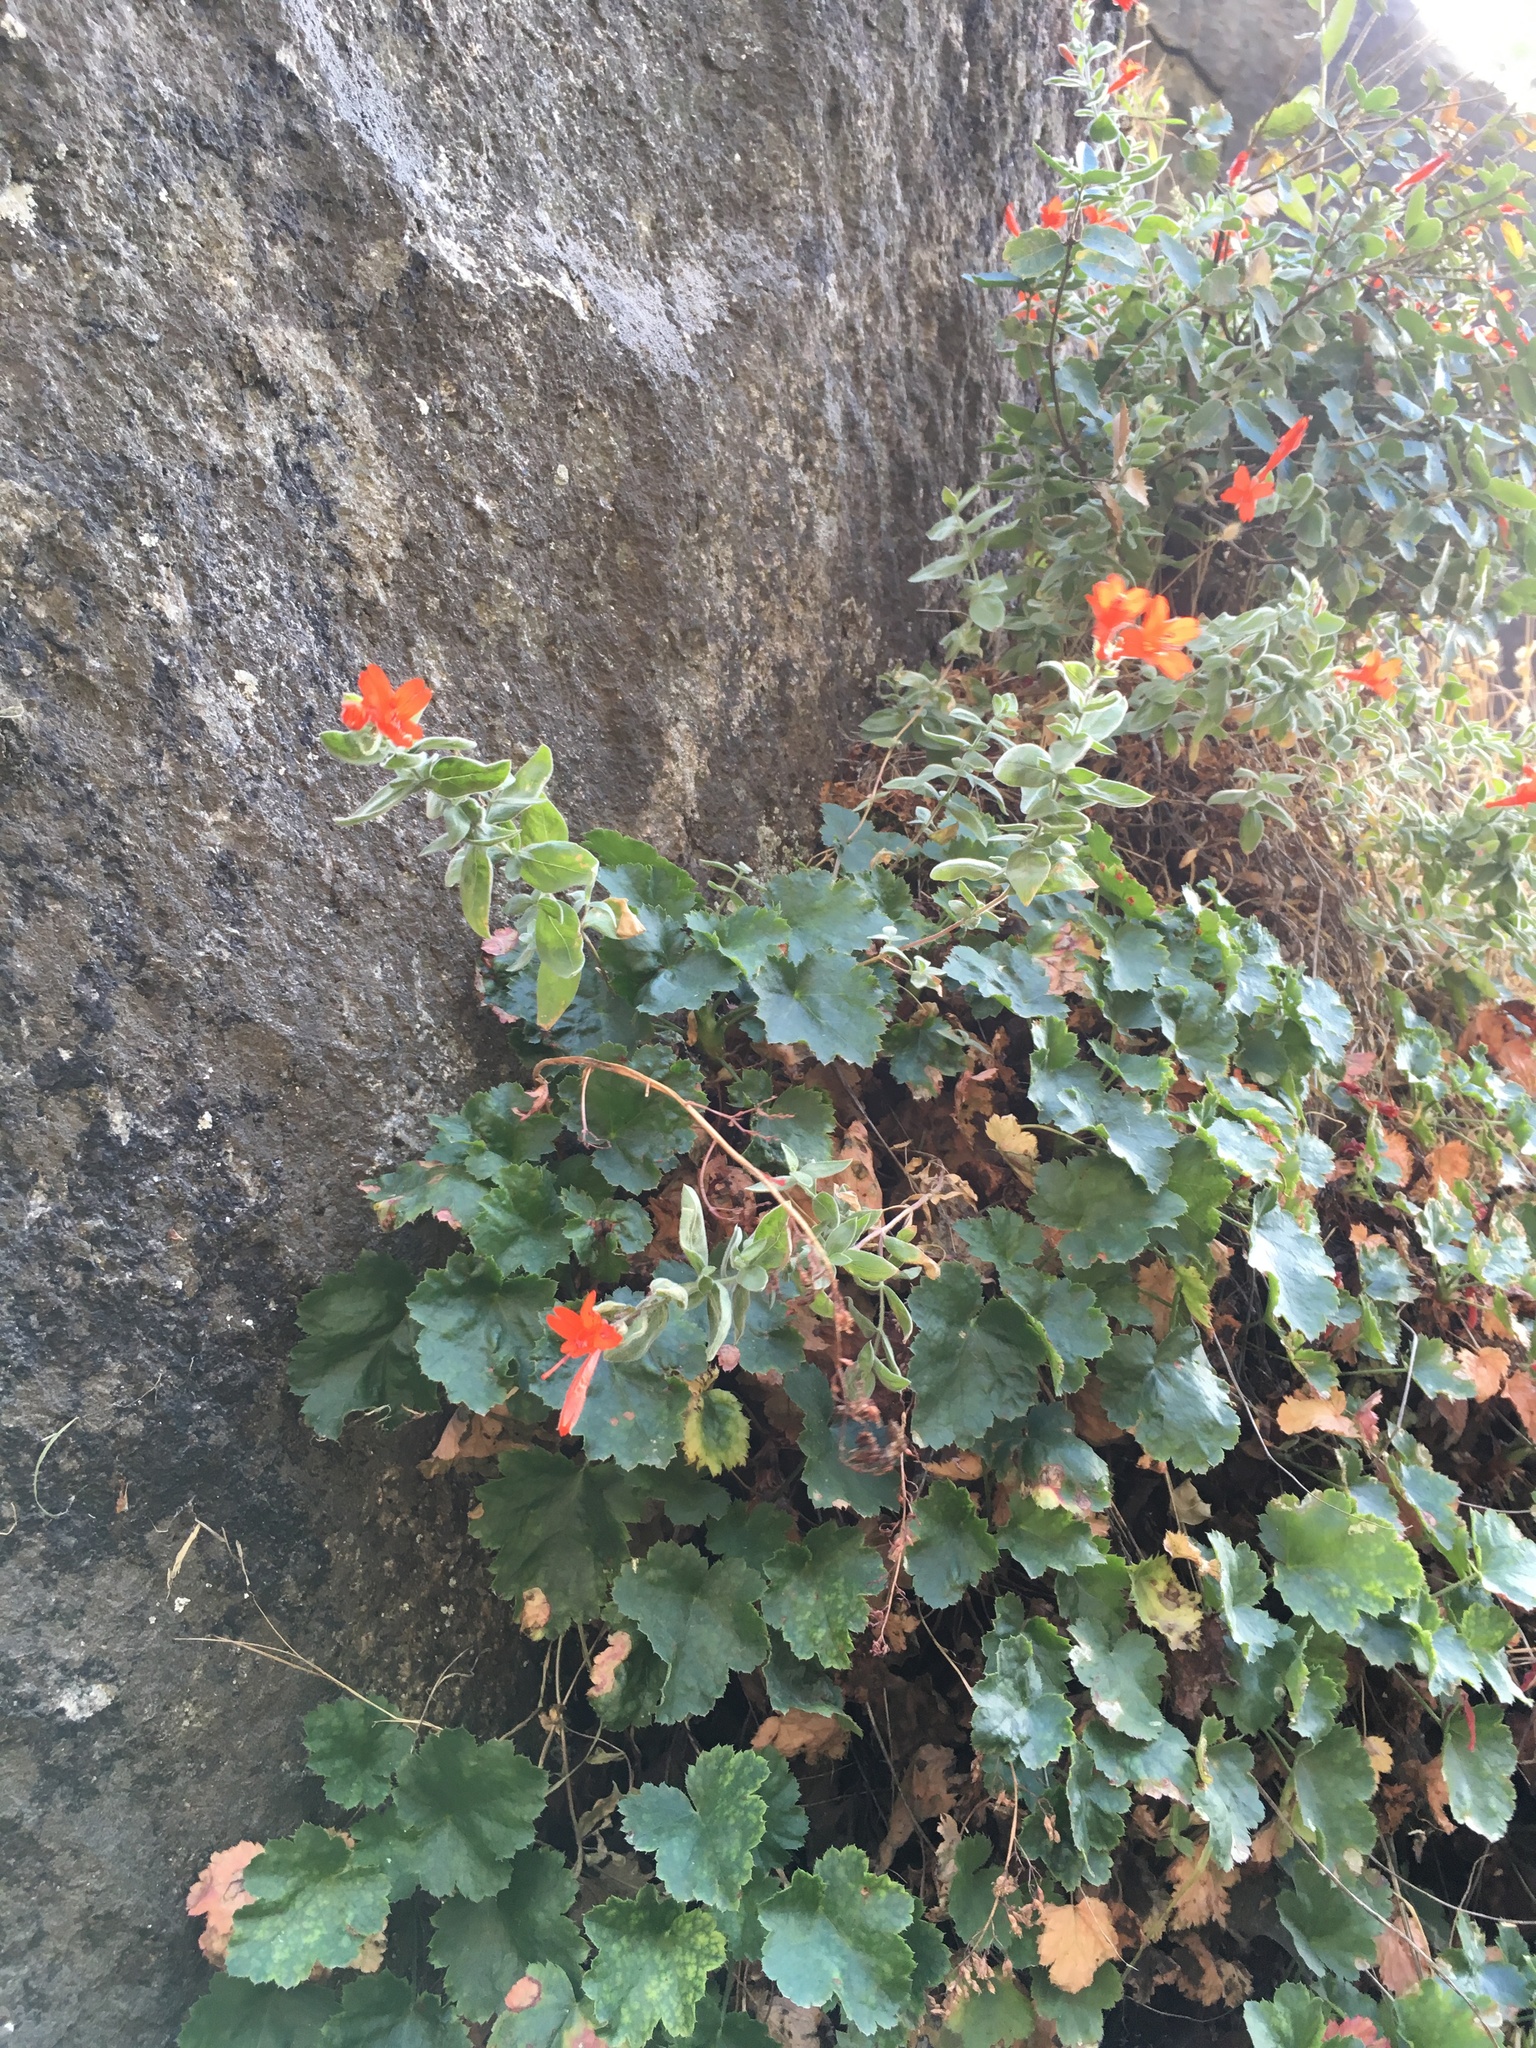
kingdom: Plantae
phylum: Tracheophyta
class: Magnoliopsida
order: Myrtales
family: Onagraceae
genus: Epilobium
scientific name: Epilobium canum
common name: California-fuchsia
